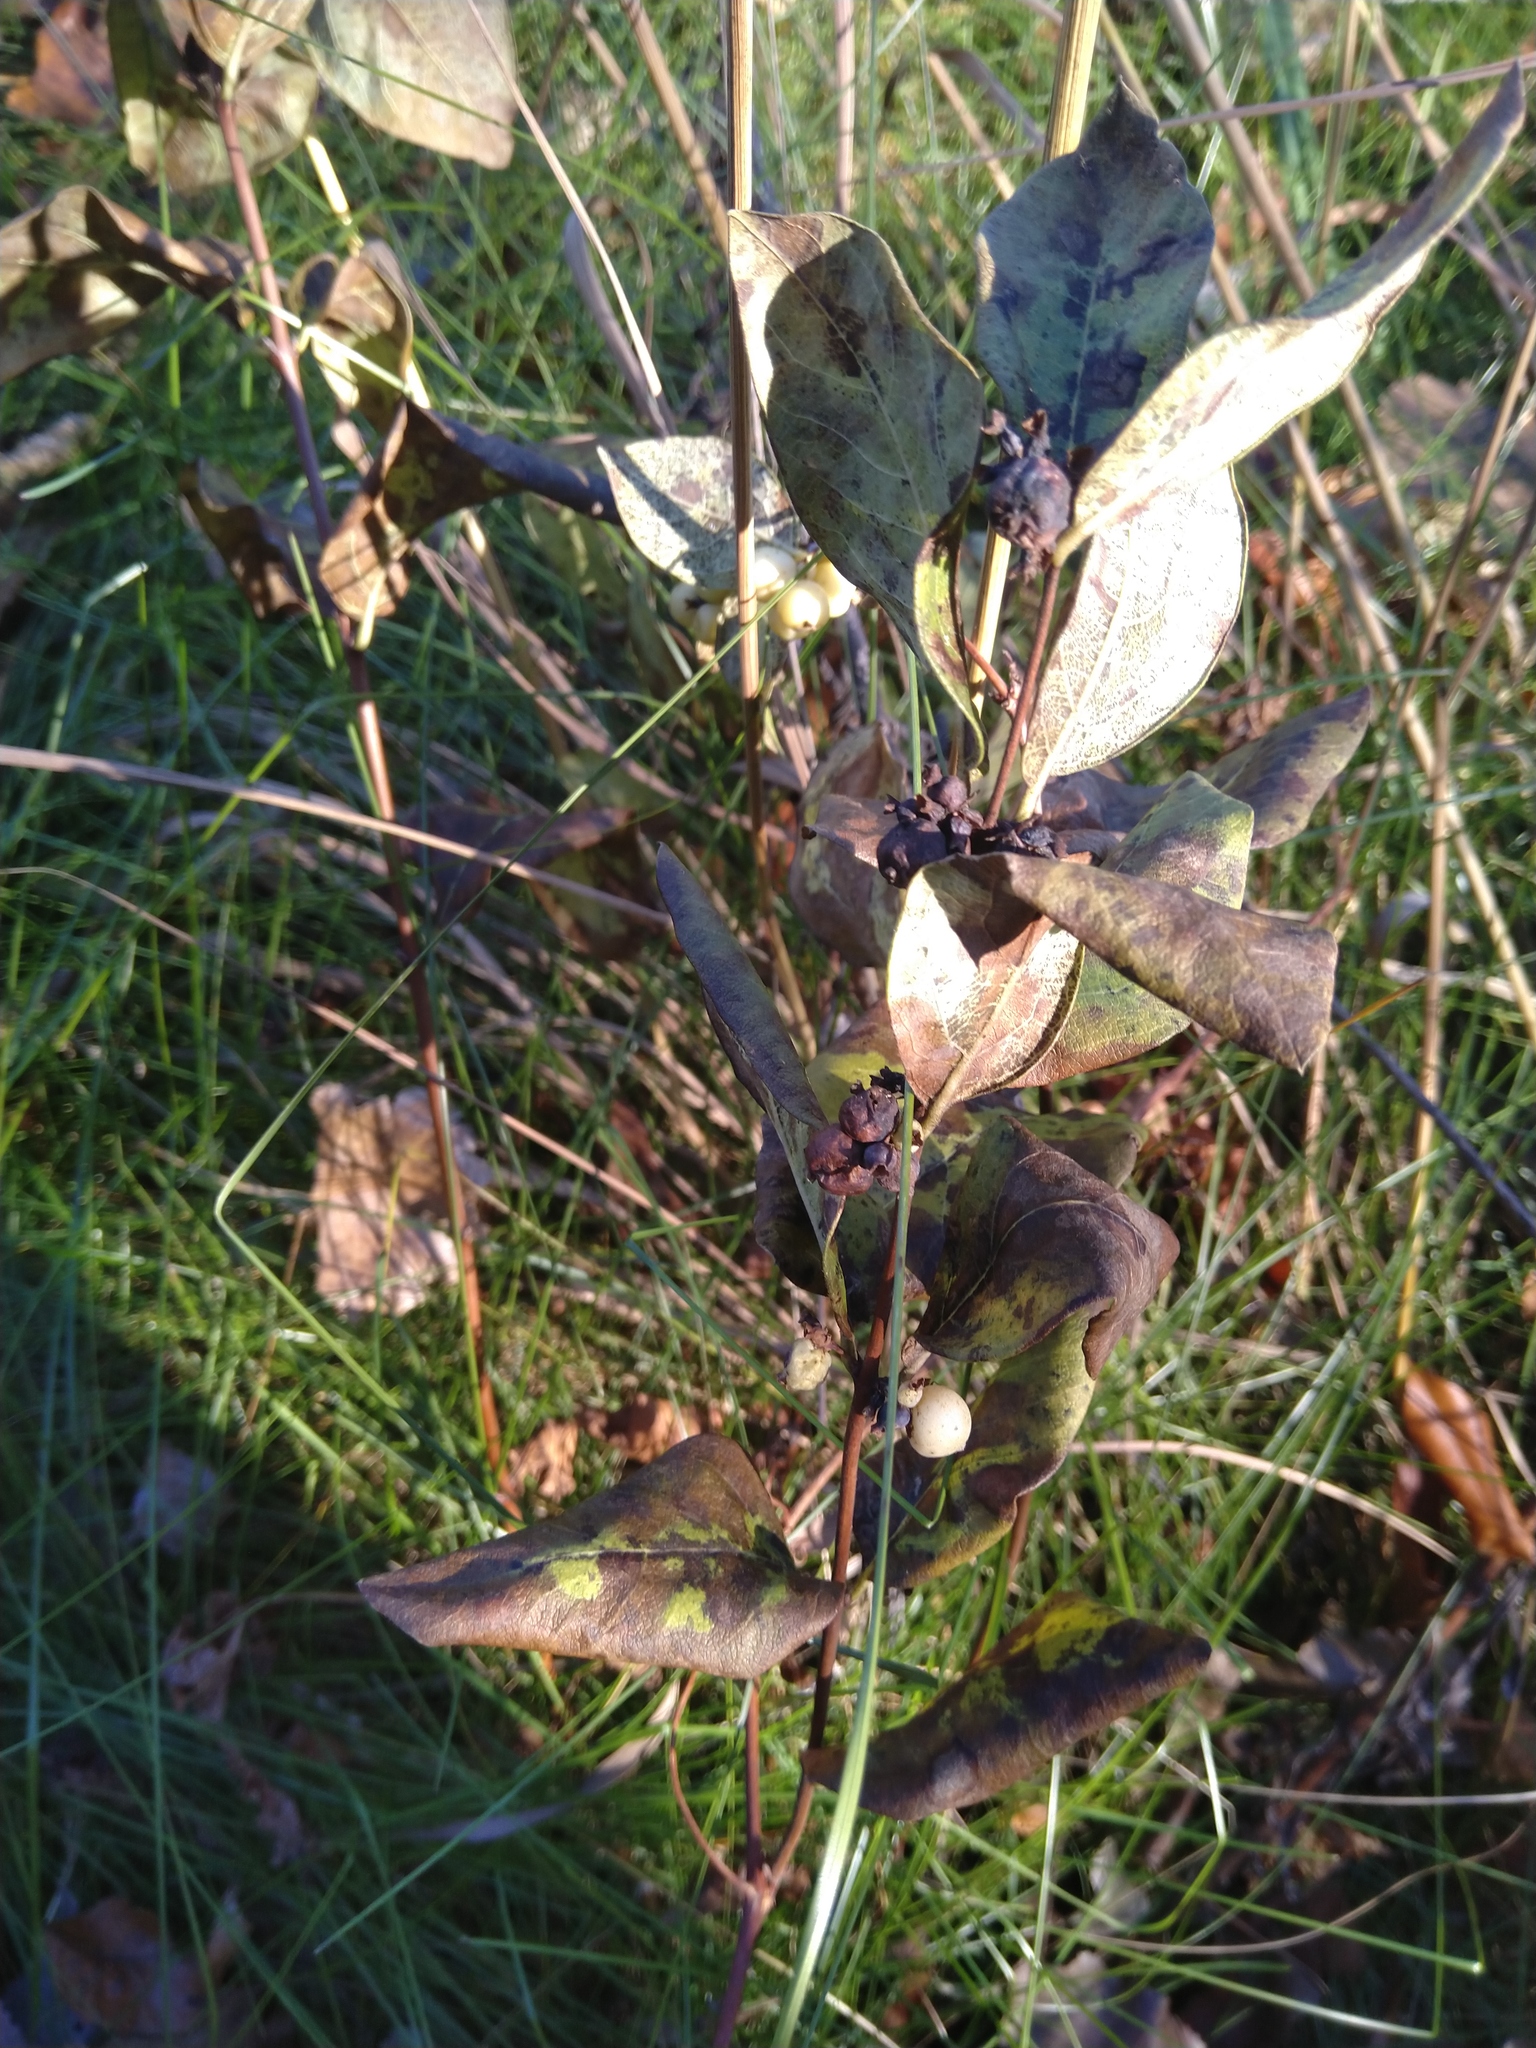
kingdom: Plantae
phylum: Tracheophyta
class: Magnoliopsida
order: Dipsacales
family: Caprifoliaceae
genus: Symphoricarpos
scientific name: Symphoricarpos occidentalis
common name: Wolfberry
